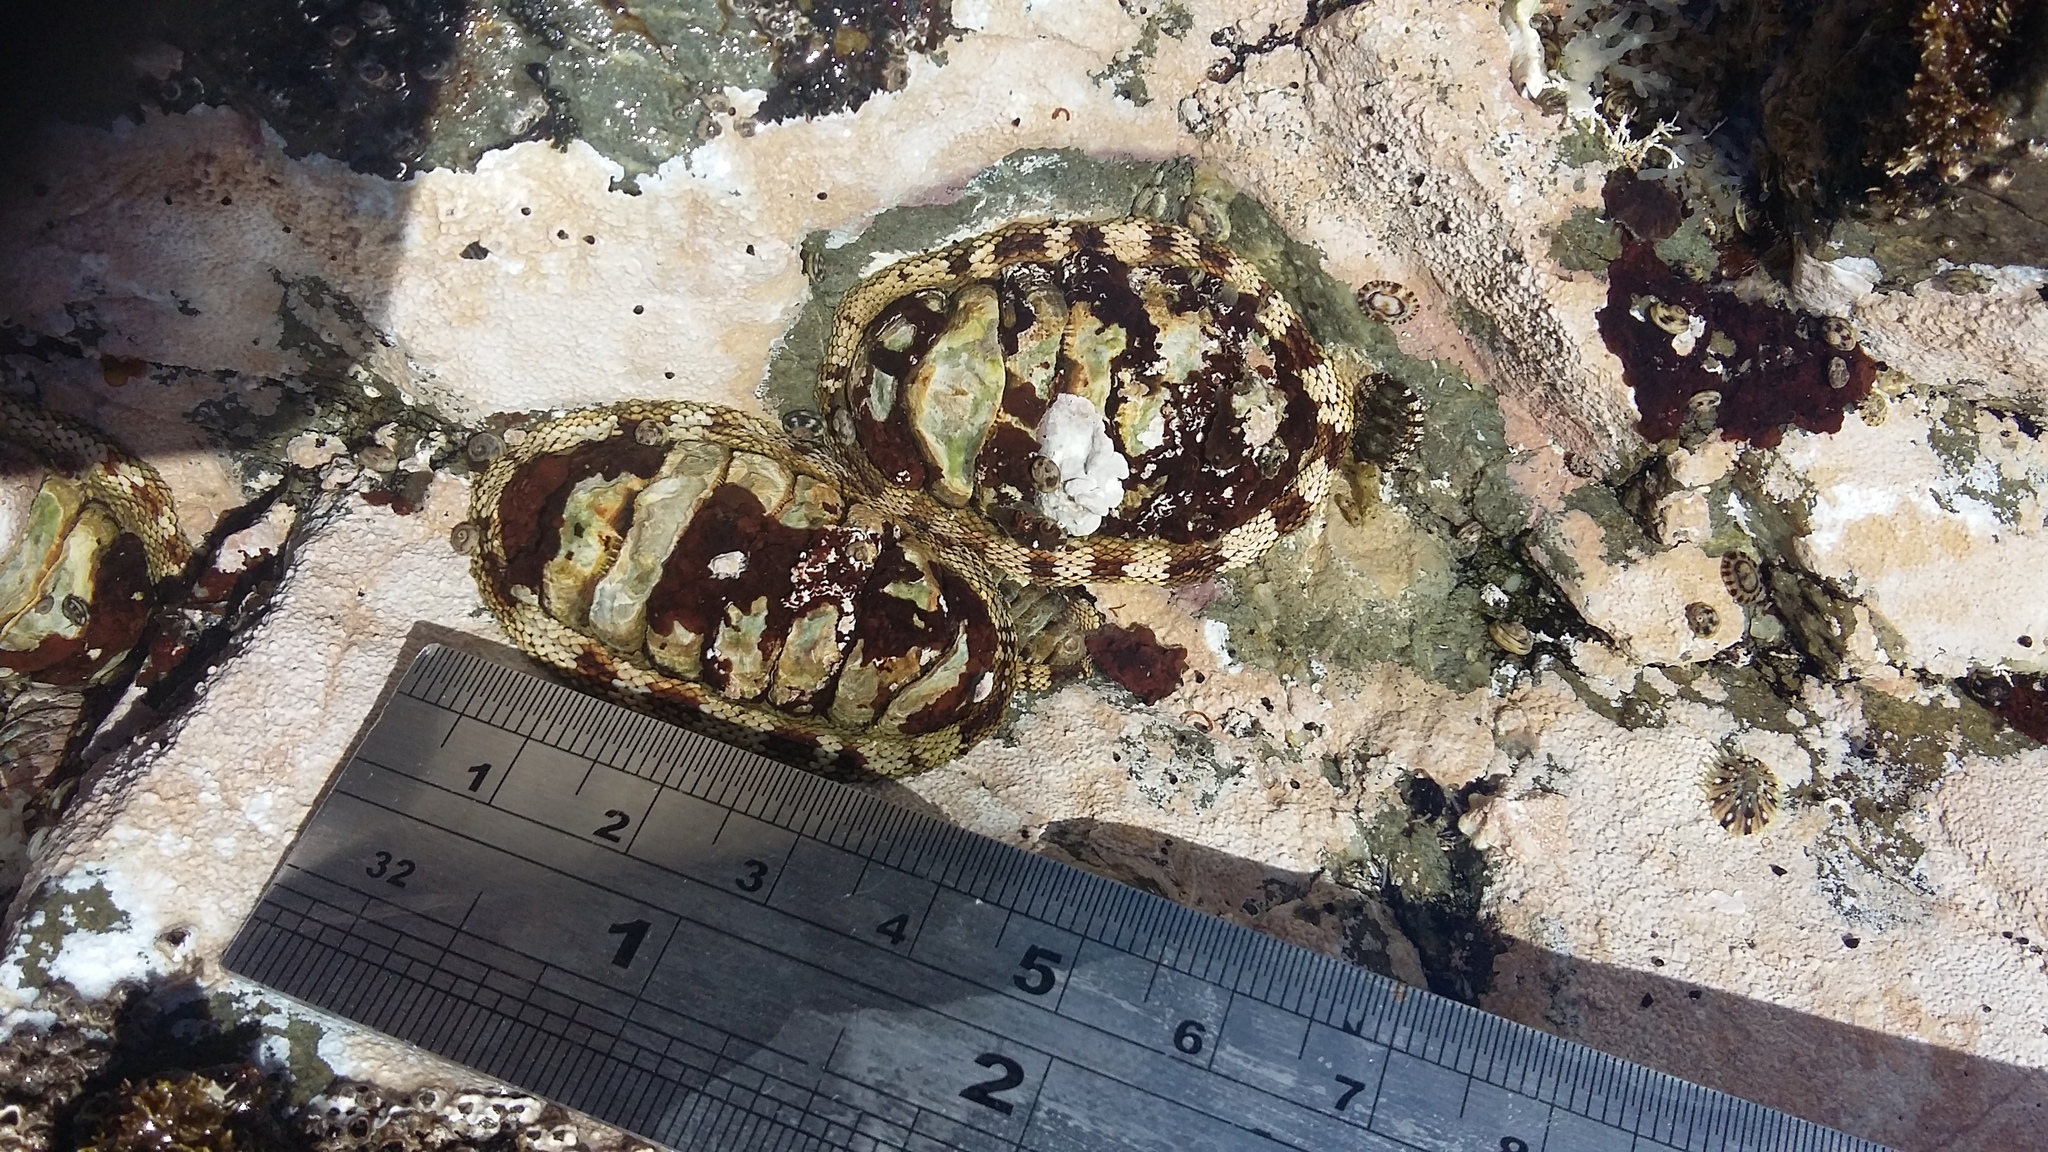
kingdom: Animalia
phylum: Mollusca
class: Polyplacophora
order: Chitonida
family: Chitonidae
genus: Sypharochiton
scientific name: Sypharochiton pelliserpentis
